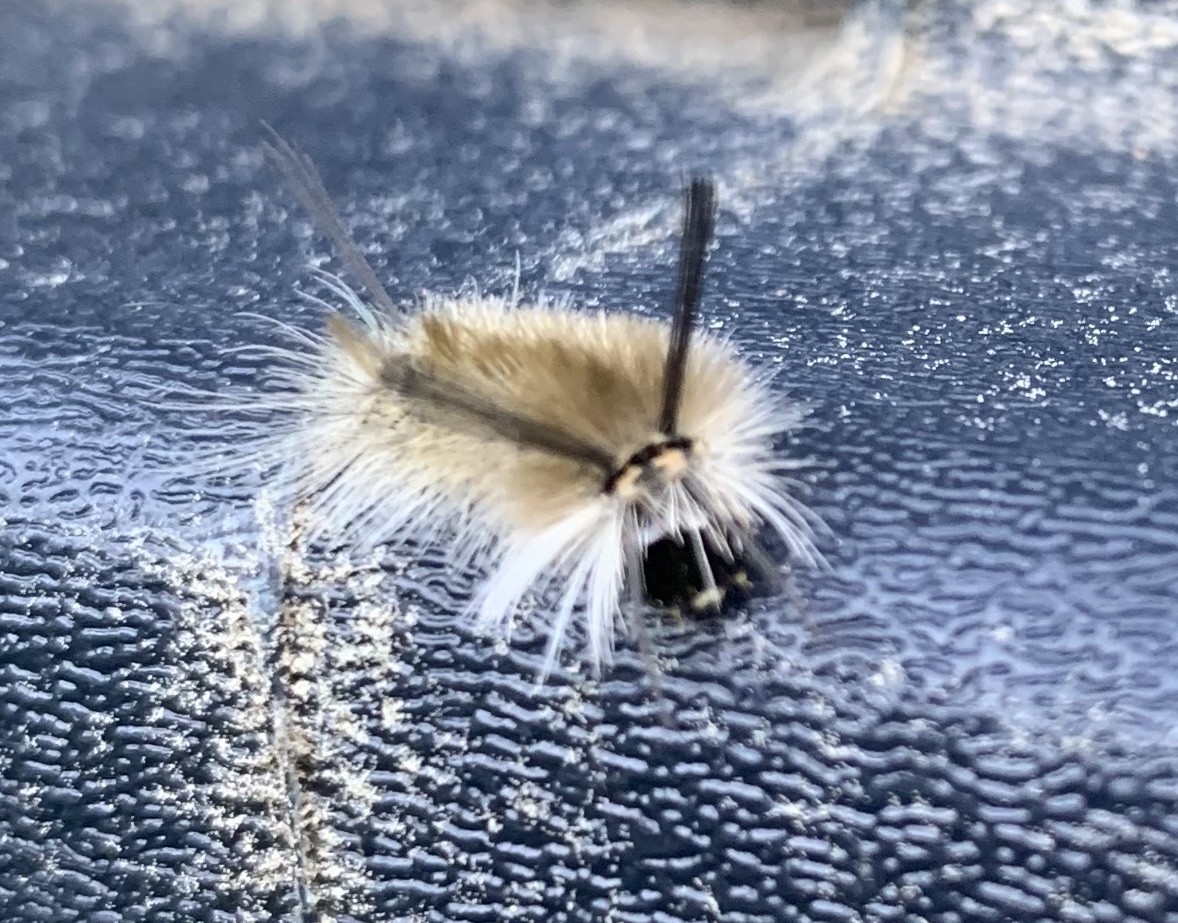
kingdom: Animalia
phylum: Arthropoda
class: Insecta
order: Lepidoptera
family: Erebidae
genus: Halysidota
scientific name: Halysidota tessellaris
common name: Banded tussock moth
